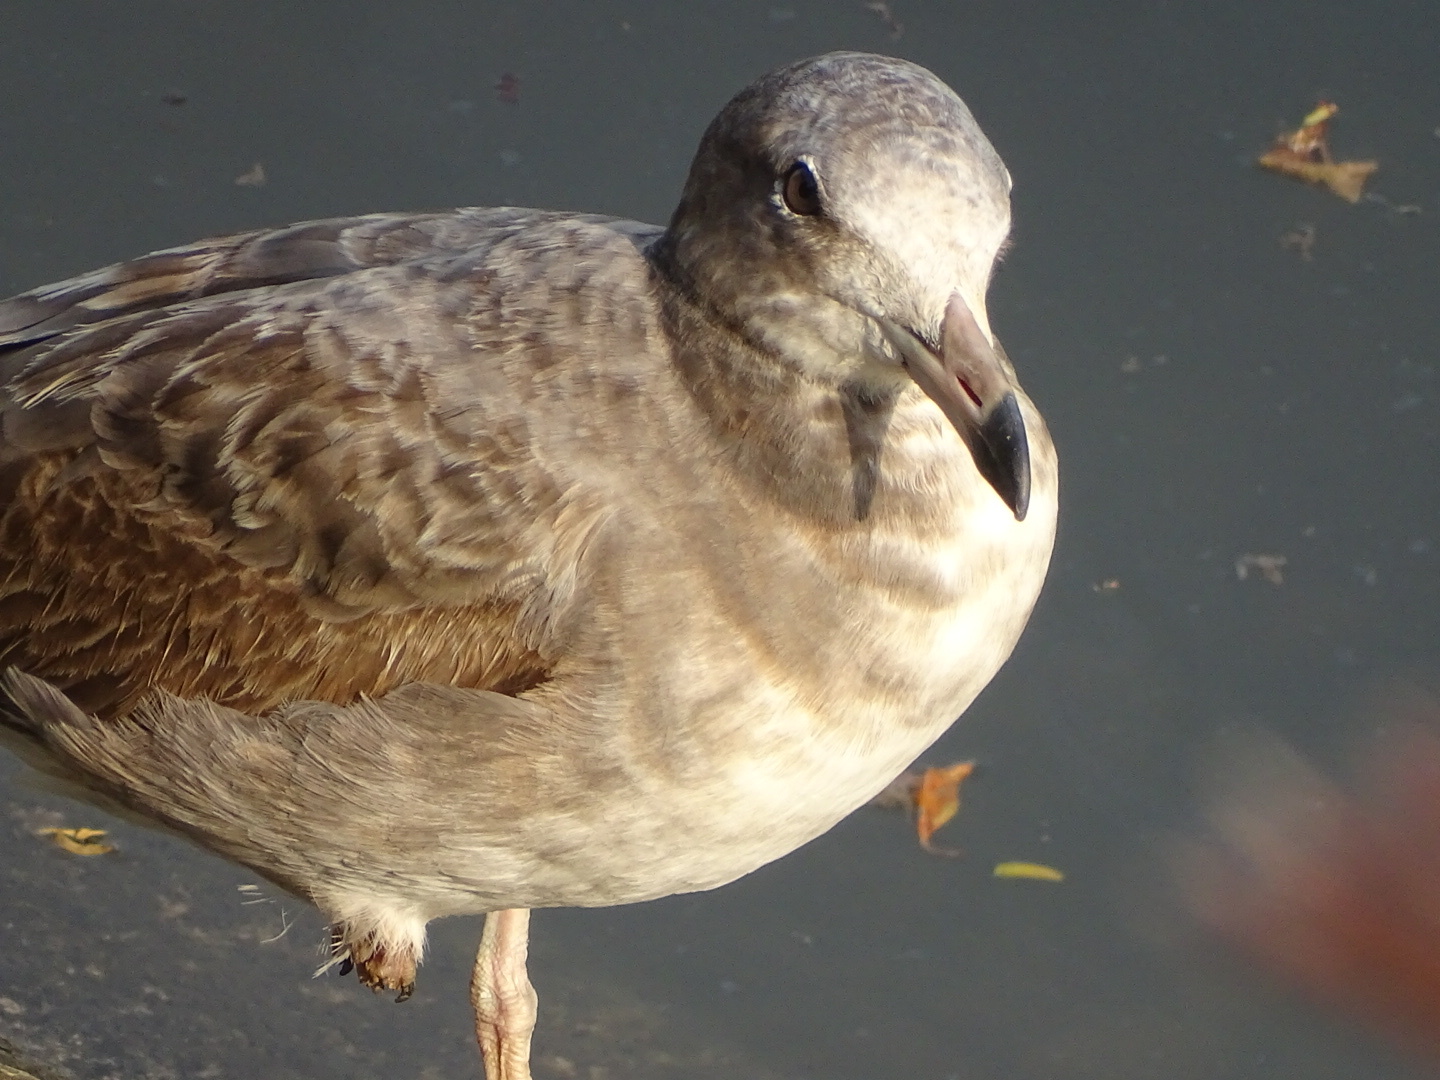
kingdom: Animalia
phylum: Chordata
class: Aves
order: Charadriiformes
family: Laridae
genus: Larus
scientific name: Larus crassirostris
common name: Black-tailed gull
